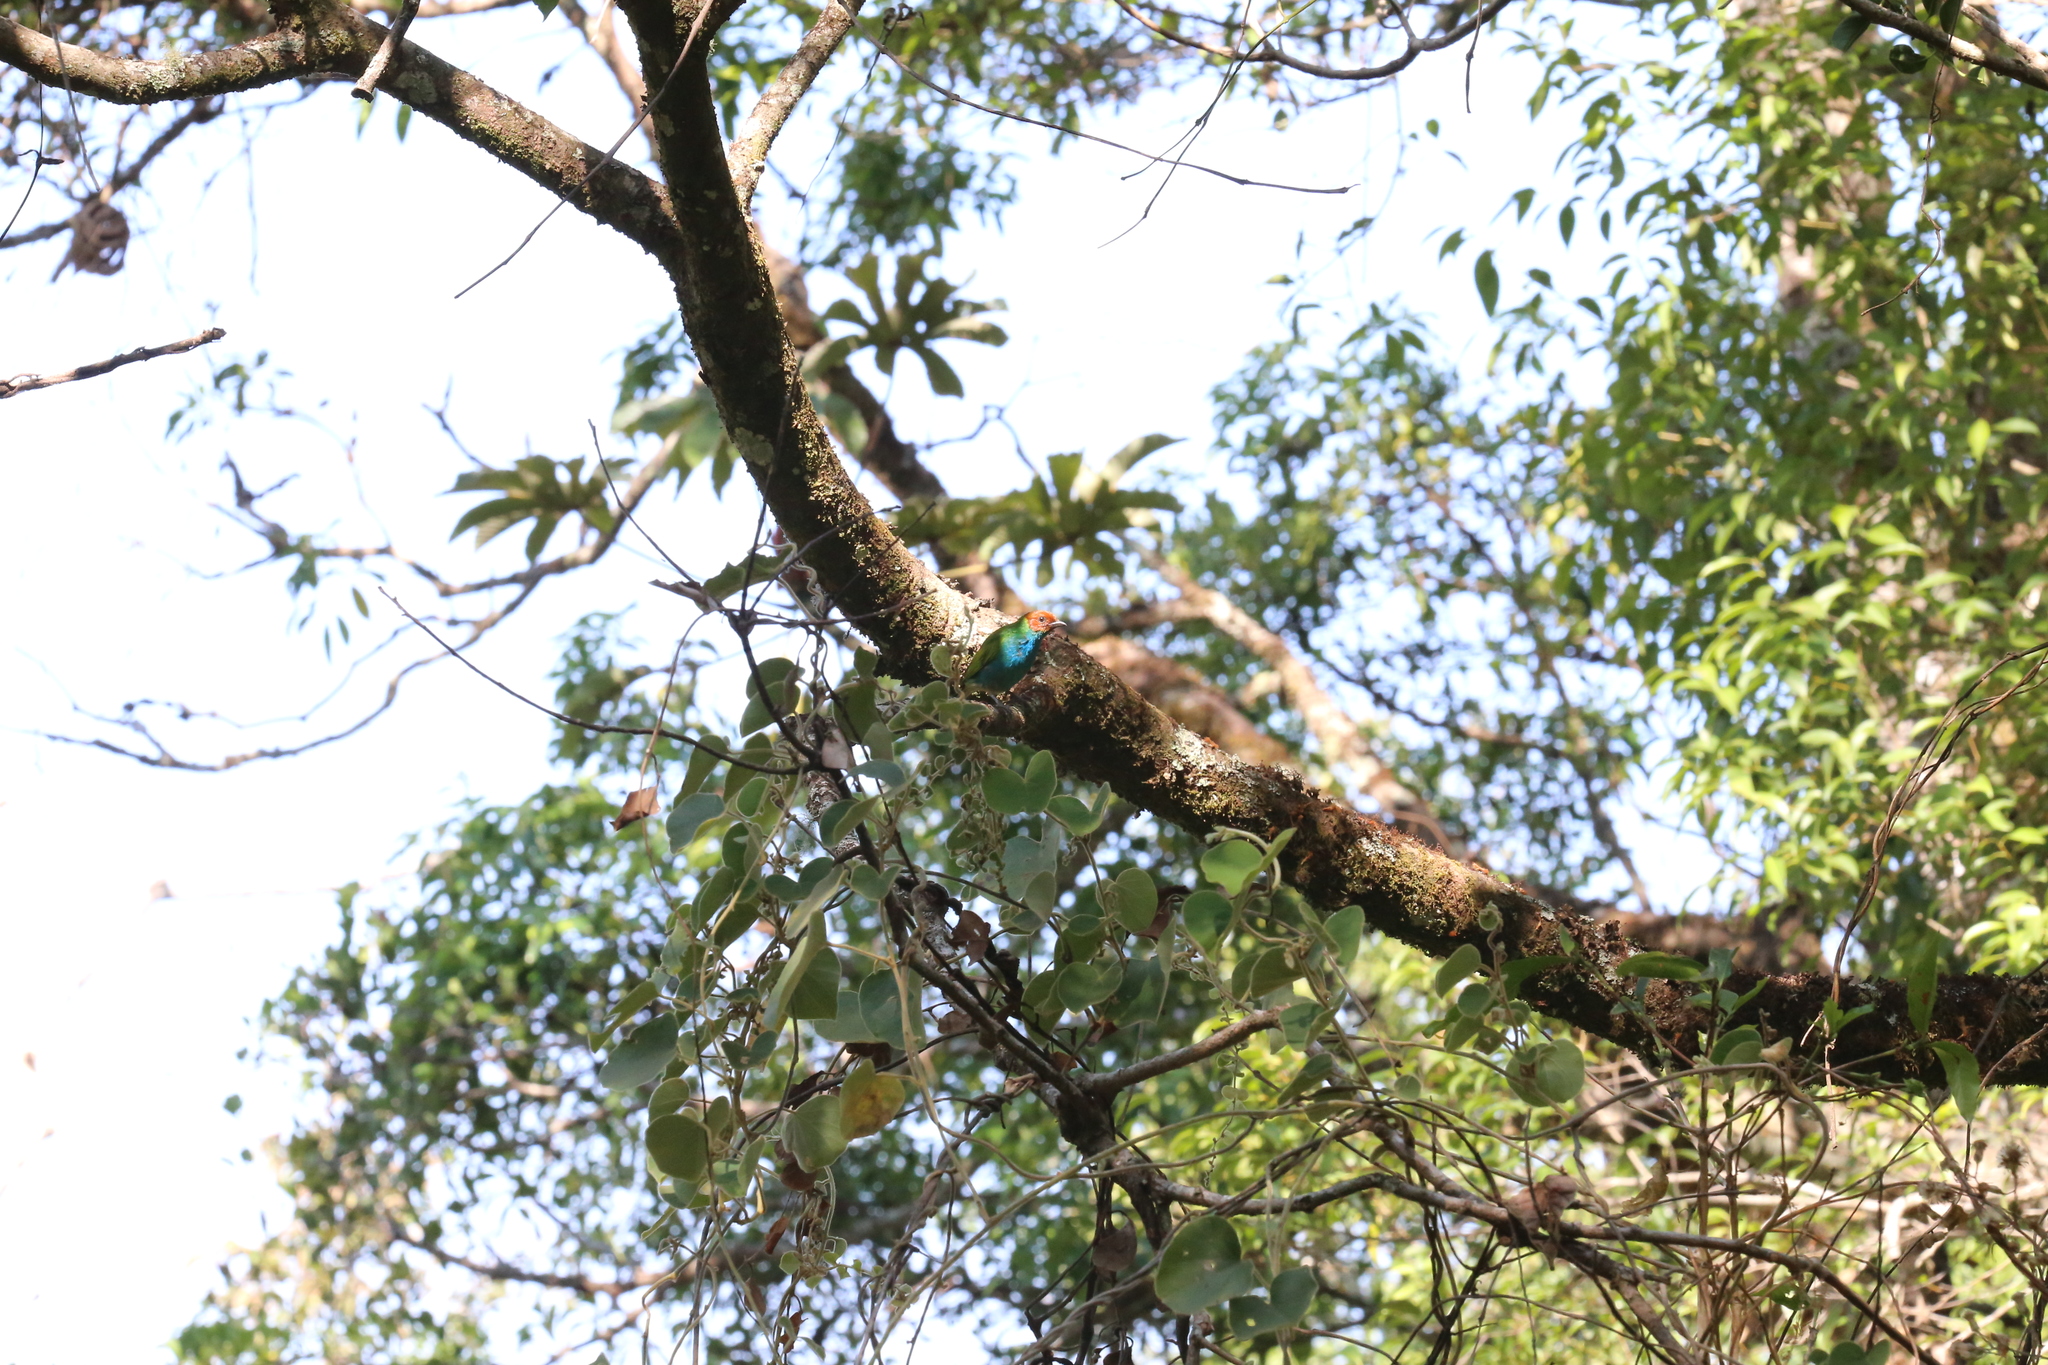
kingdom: Animalia
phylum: Chordata
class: Aves
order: Passeriformes
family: Thraupidae
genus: Tangara
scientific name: Tangara gyrola
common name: Bay-headed tanager
